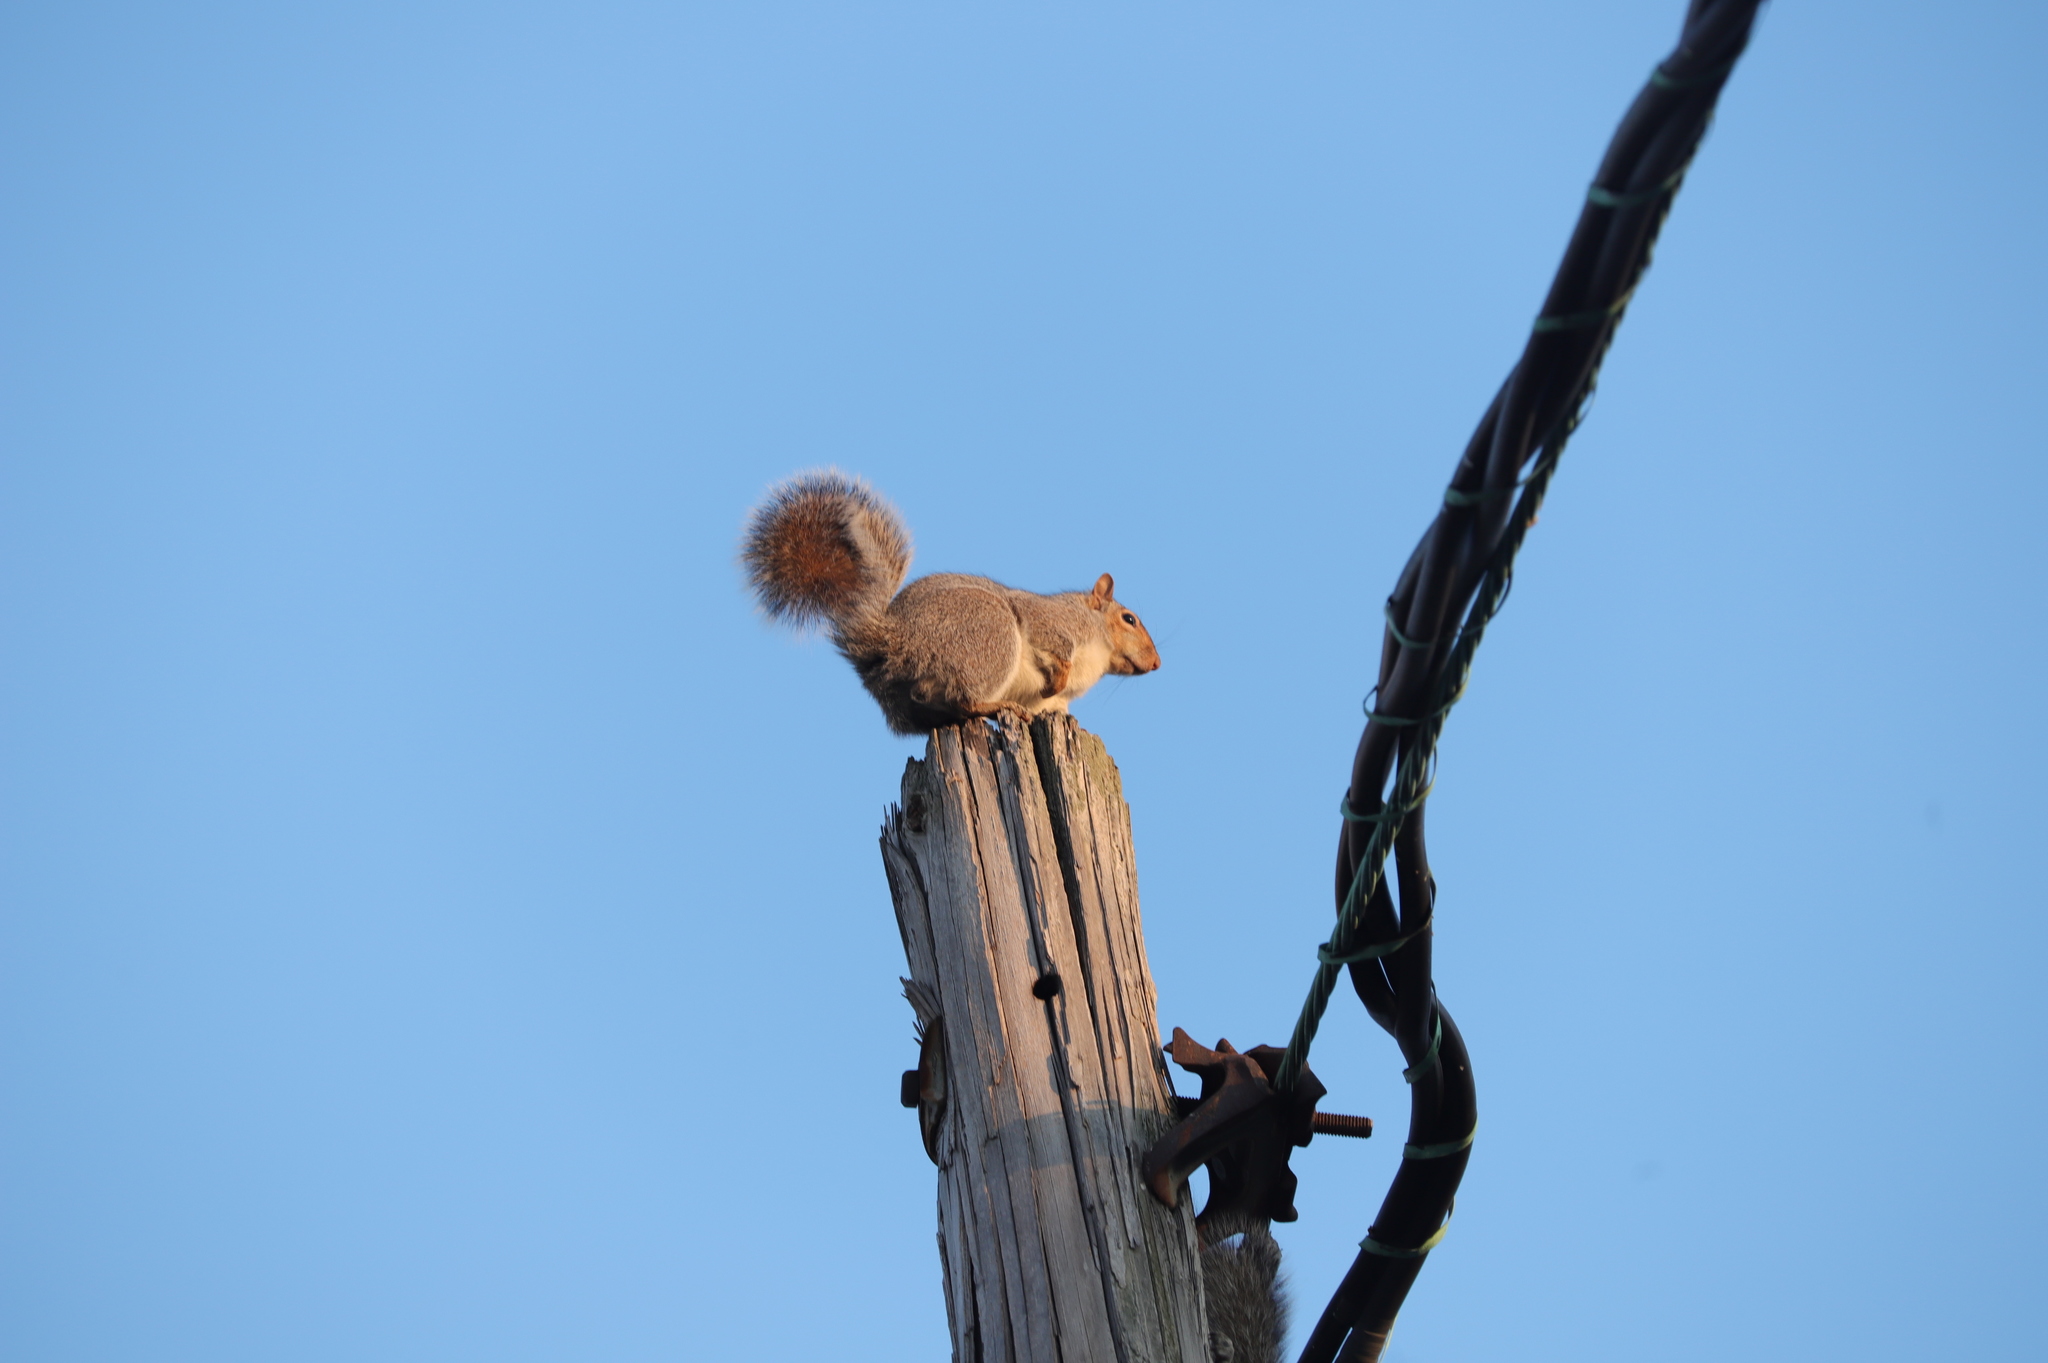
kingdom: Animalia
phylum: Chordata
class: Mammalia
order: Rodentia
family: Sciuridae
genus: Sciurus
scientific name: Sciurus carolinensis
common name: Eastern gray squirrel
